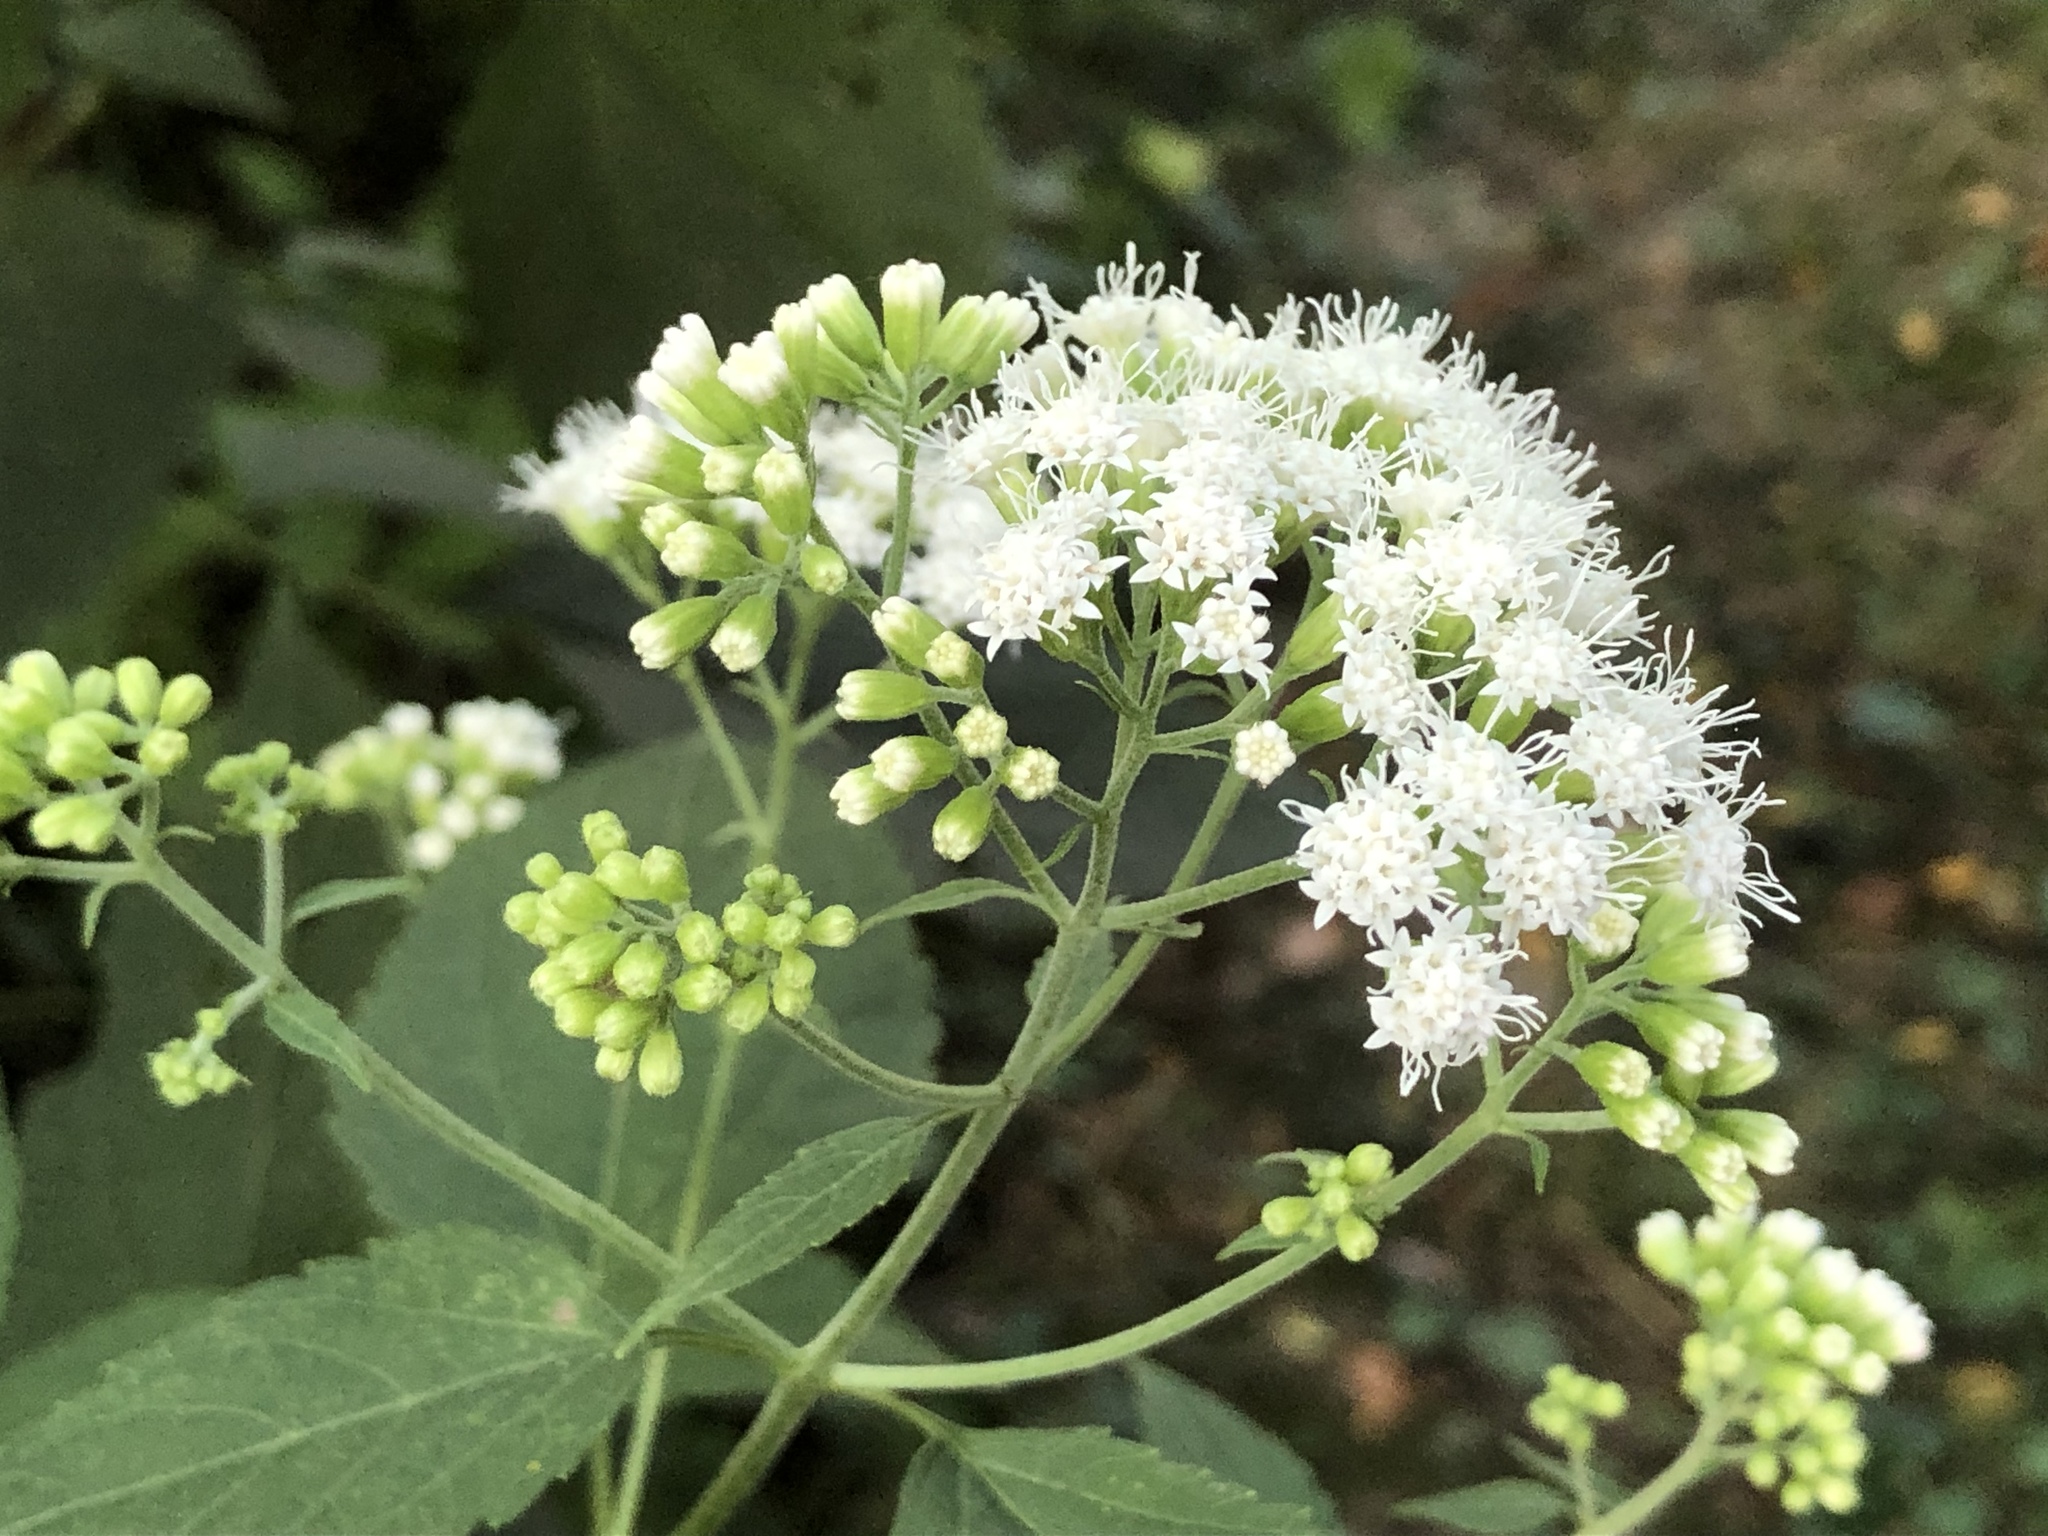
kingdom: Plantae
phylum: Tracheophyta
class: Magnoliopsida
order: Asterales
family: Asteraceae
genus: Ageratina
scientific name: Ageratina altissima
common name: White snakeroot
